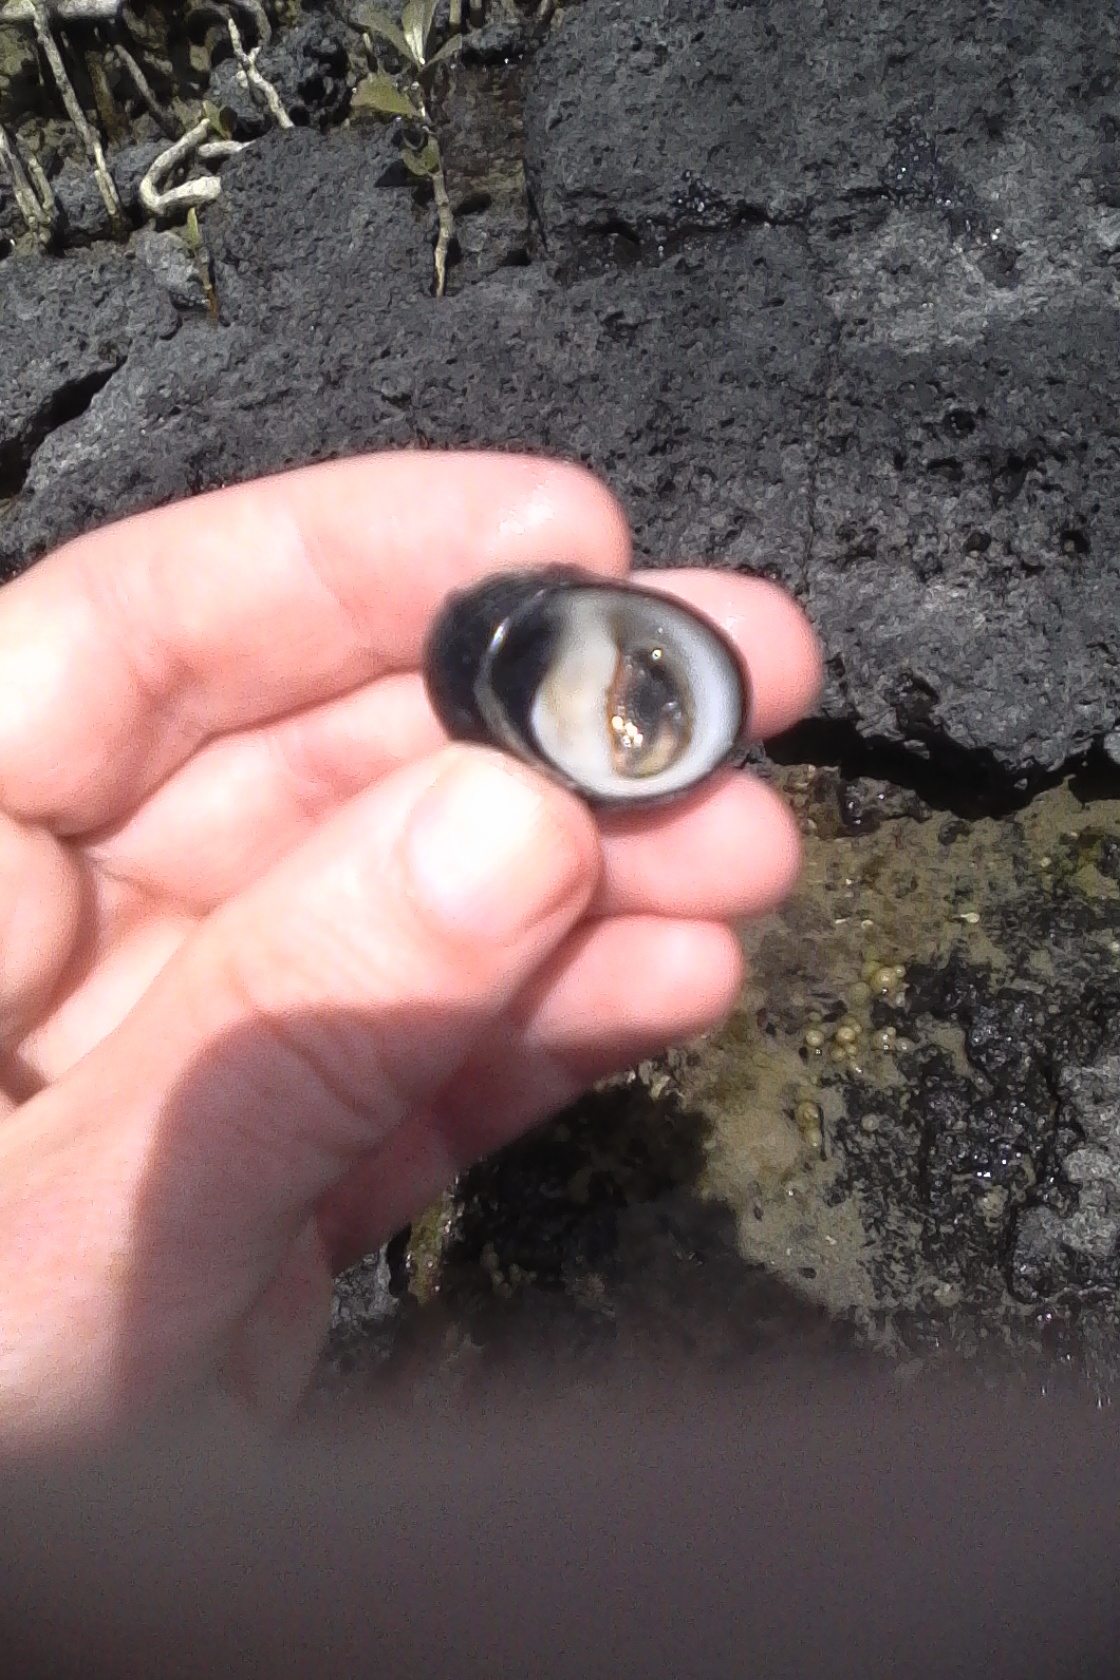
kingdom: Animalia
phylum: Mollusca
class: Gastropoda
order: Cycloneritida
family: Neritidae
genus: Nerita
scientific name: Nerita melanotragus
